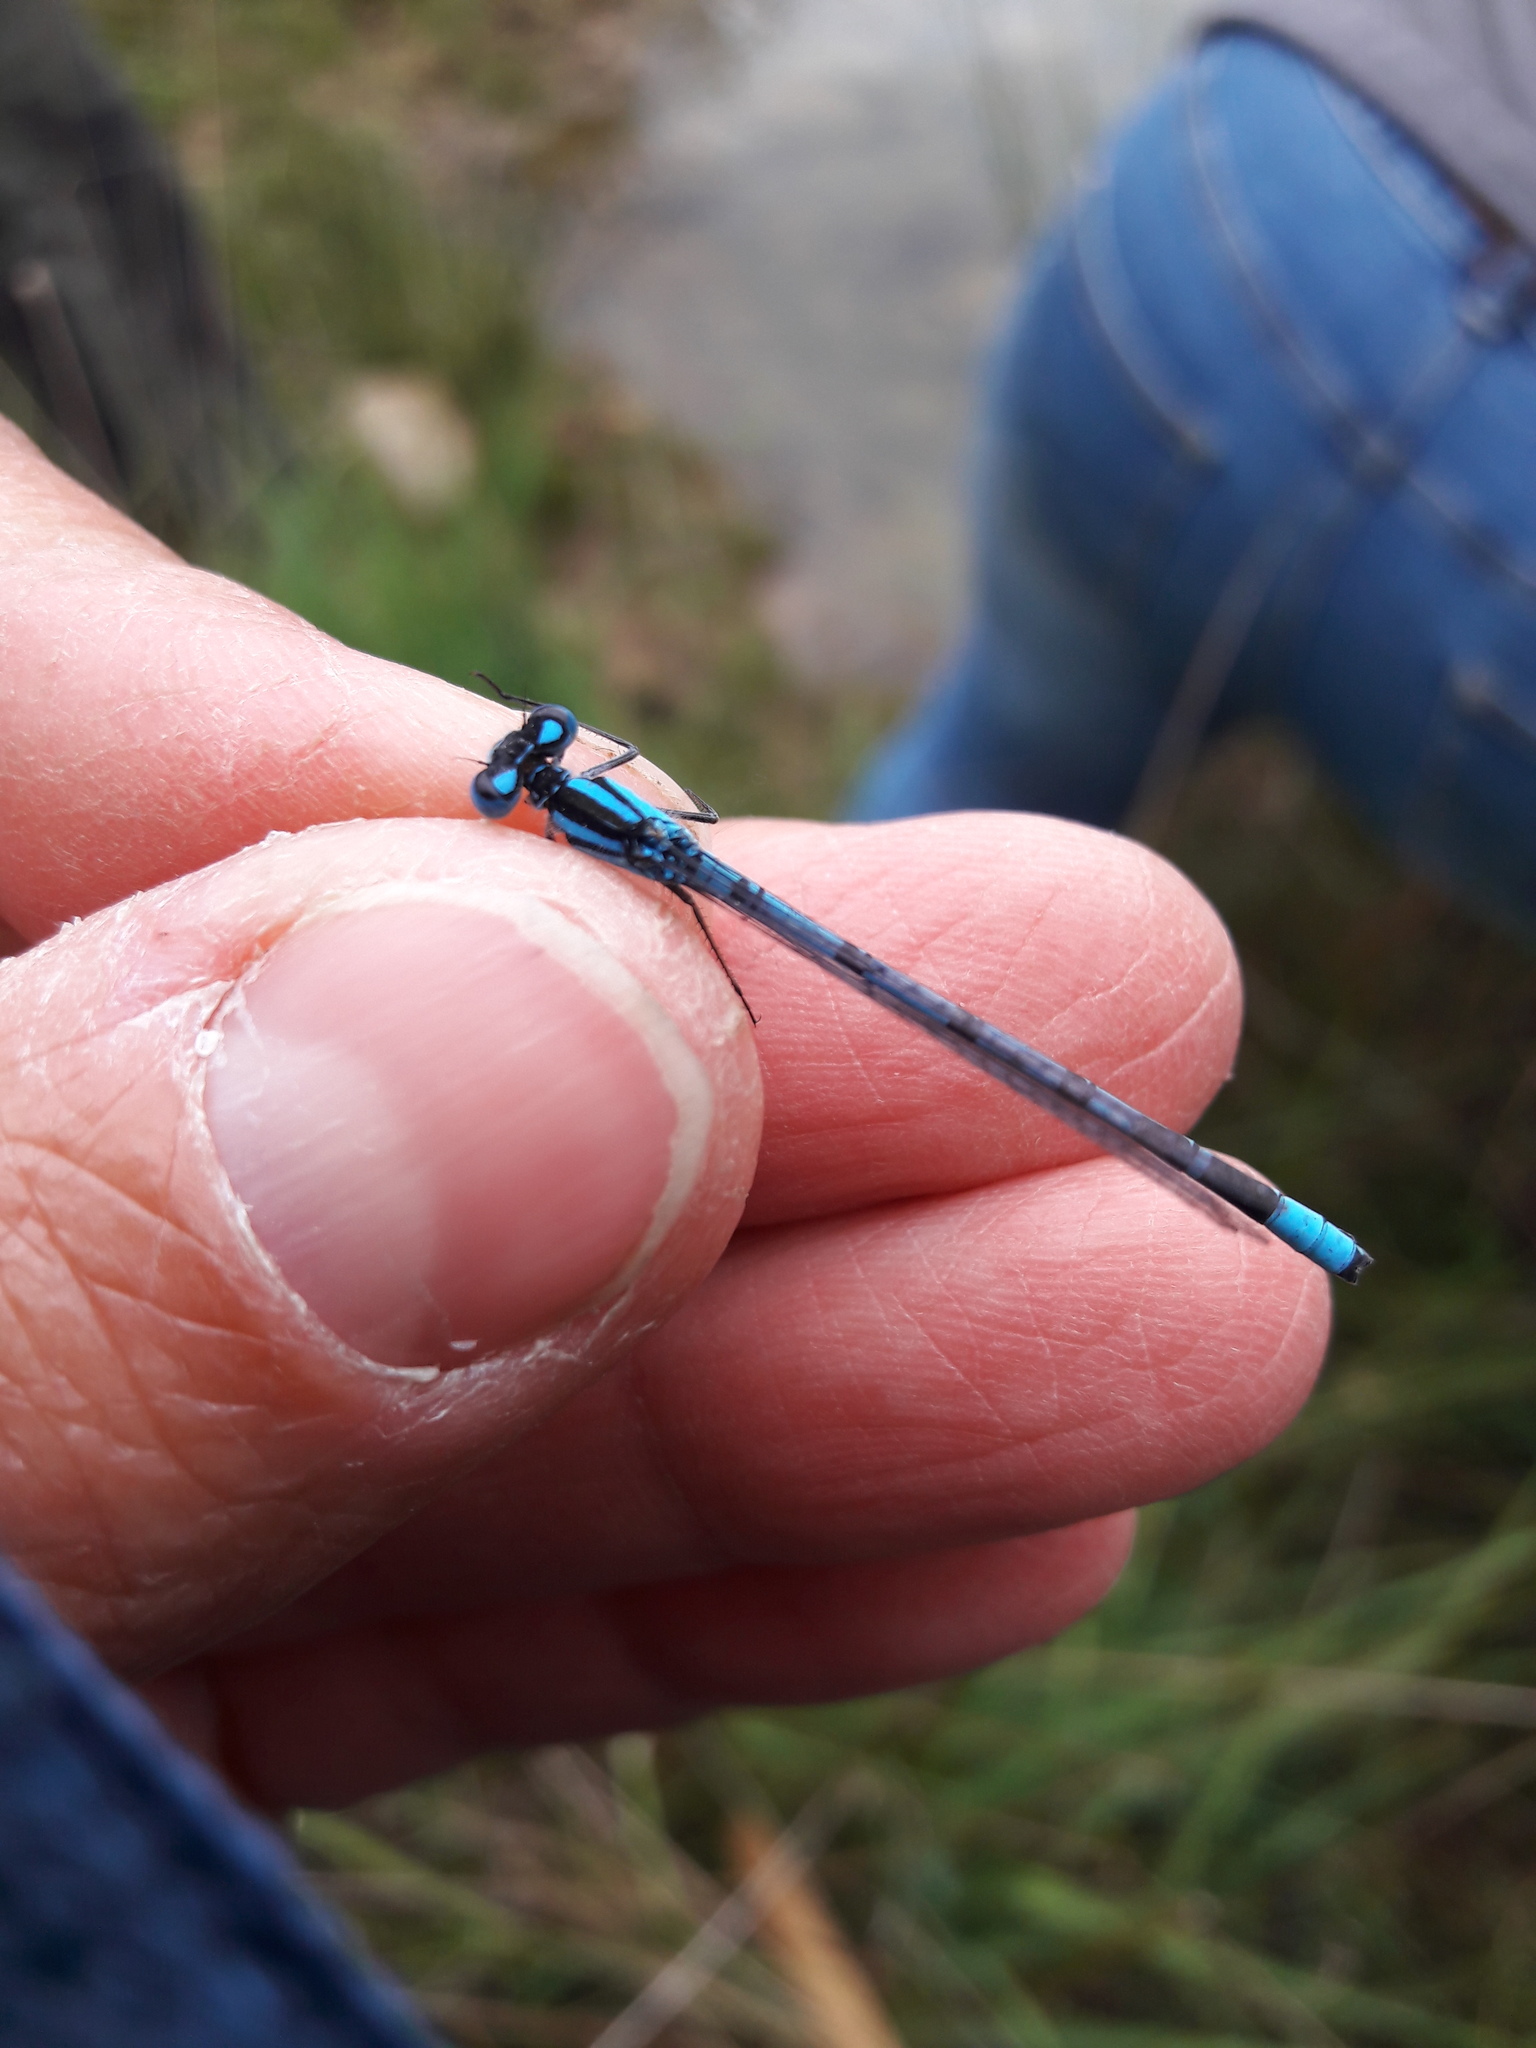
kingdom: Animalia
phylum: Arthropoda
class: Insecta
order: Odonata
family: Coenagrionidae
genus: Enallagma
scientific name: Enallagma cyathigerum
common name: Common blue damselfly
